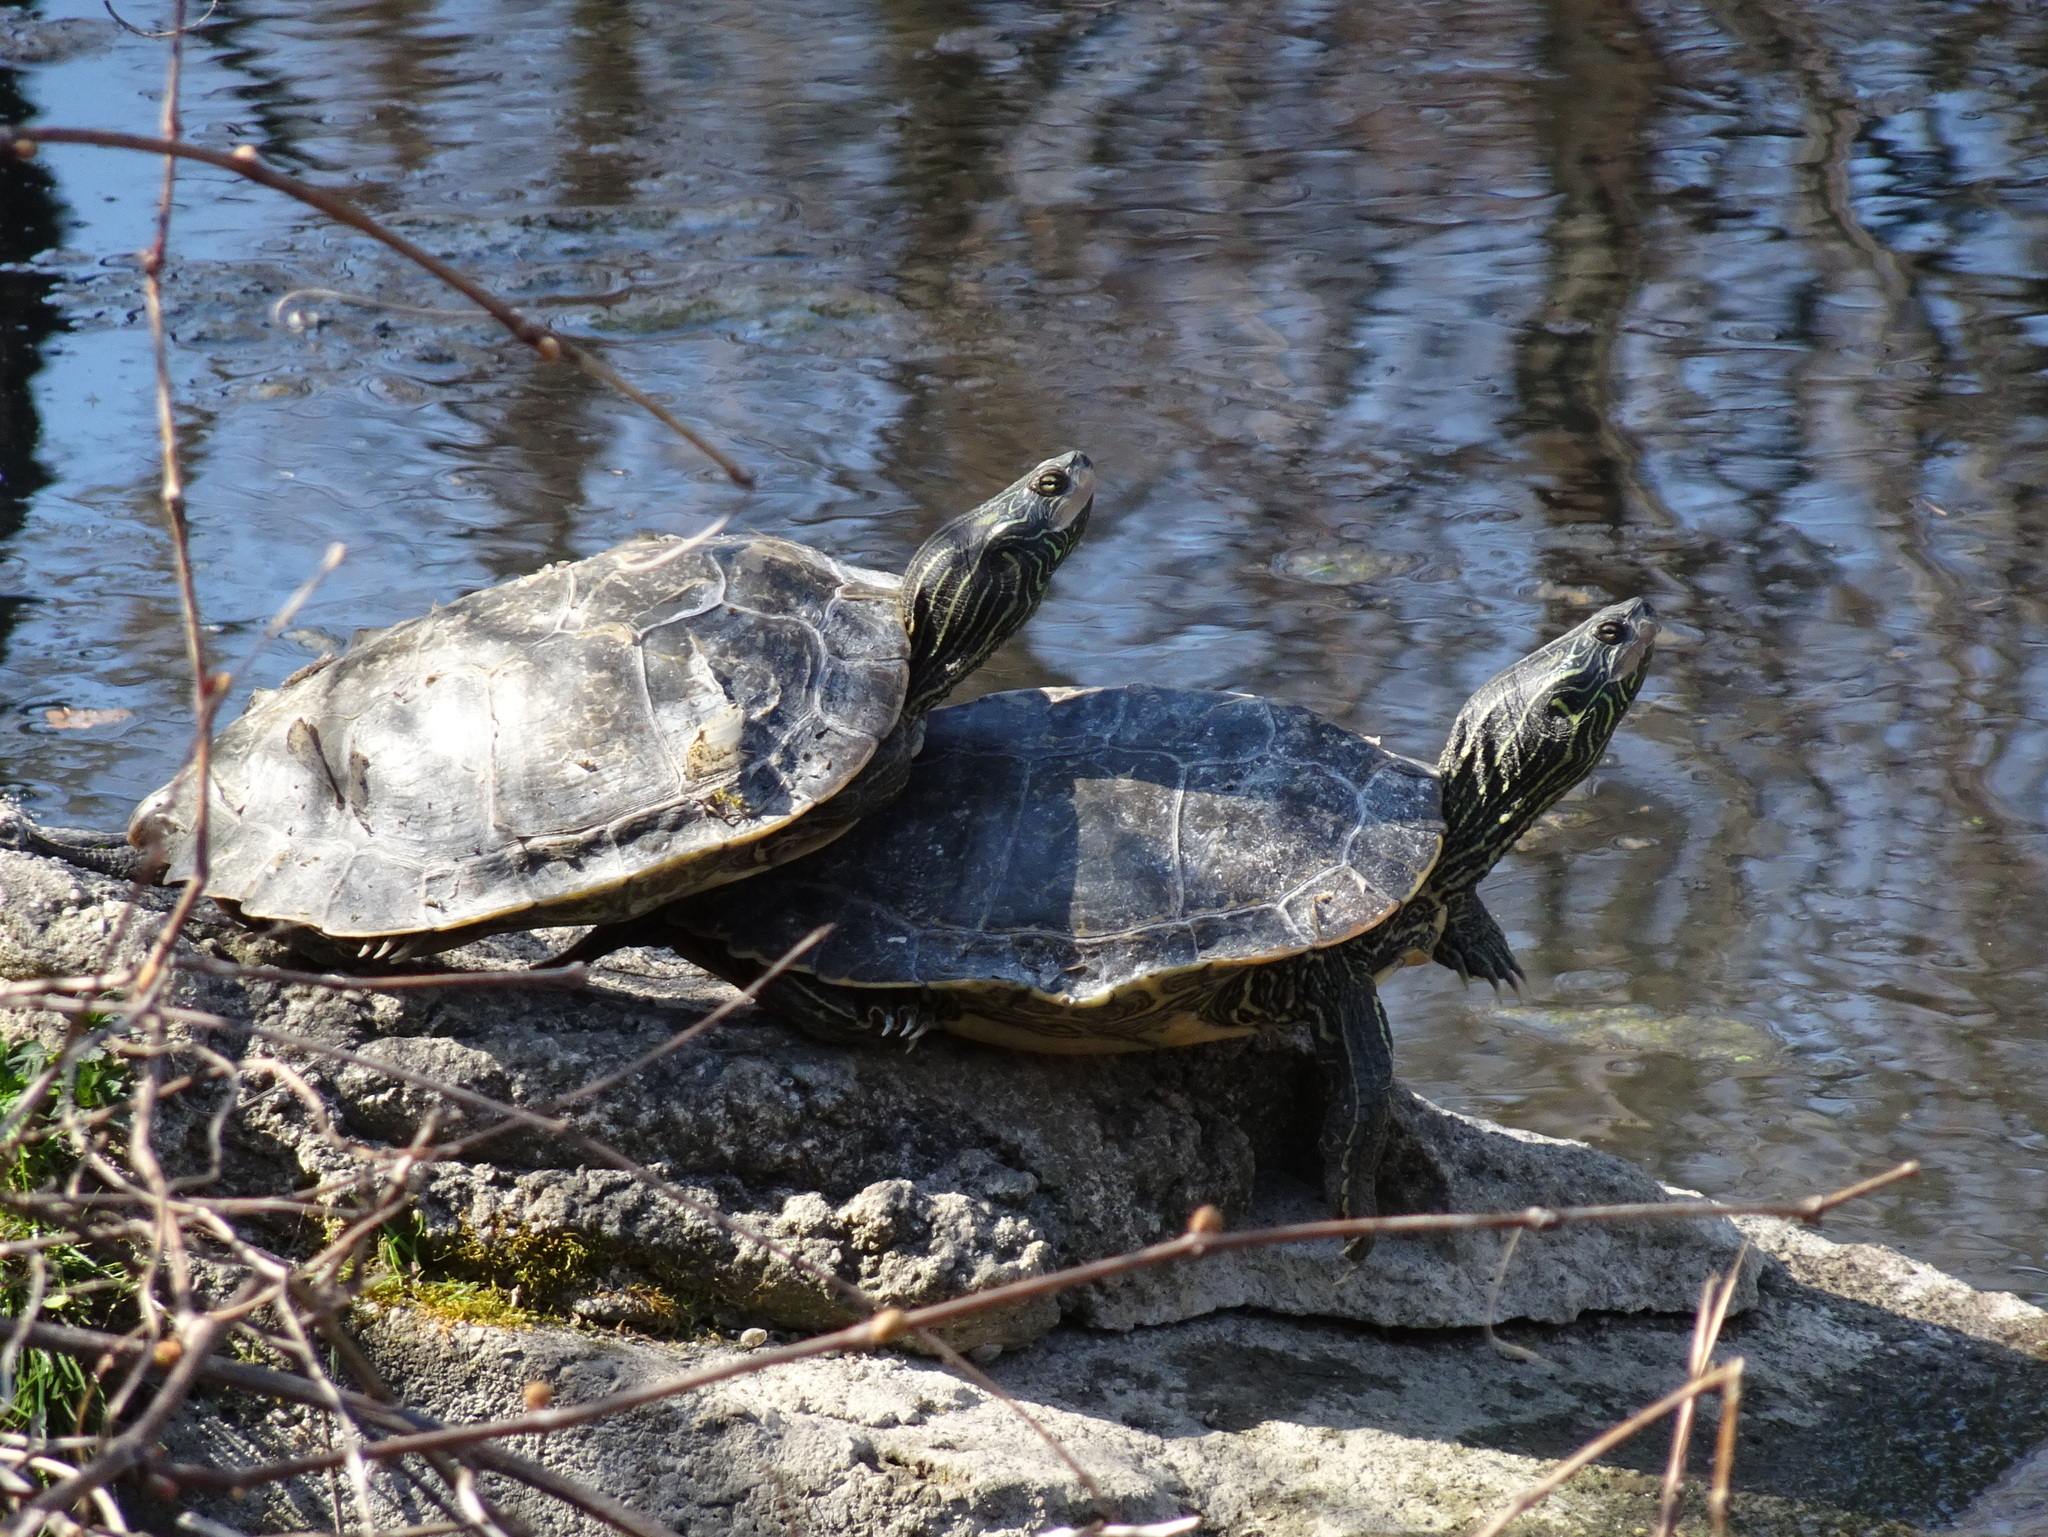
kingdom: Animalia
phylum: Chordata
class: Testudines
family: Emydidae
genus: Graptemys
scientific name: Graptemys geographica
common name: Common map turtle
